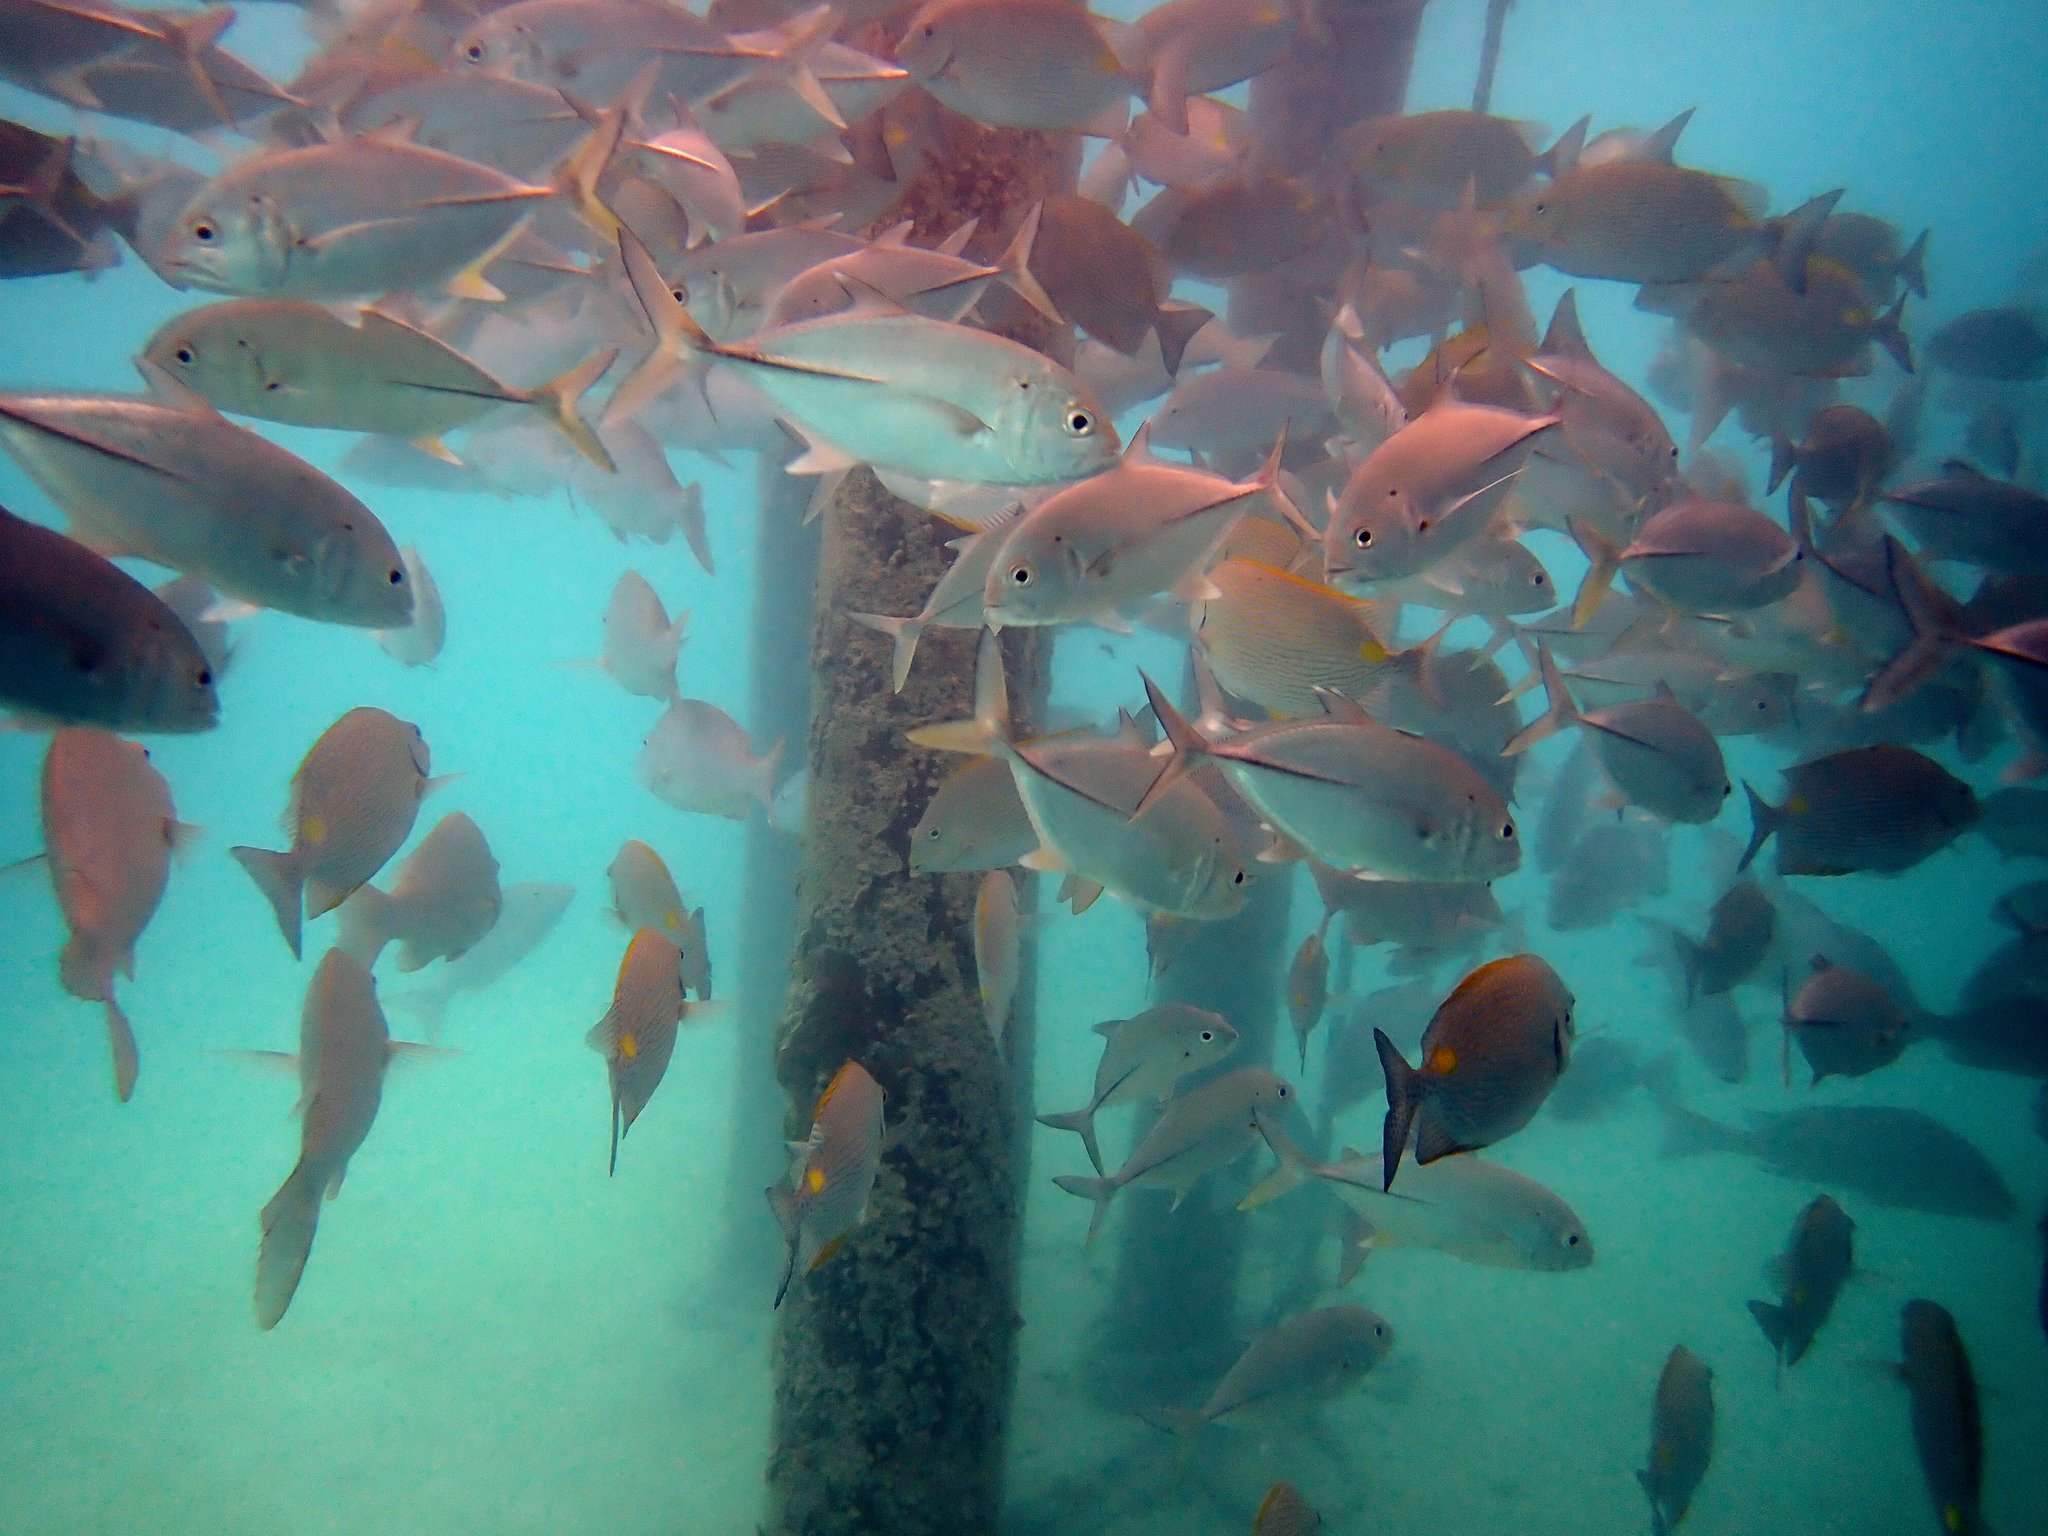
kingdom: Animalia
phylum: Chordata
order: Perciformes
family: Carangidae
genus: Caranx
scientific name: Caranx sexfasciatus
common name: Bigeye trevally
